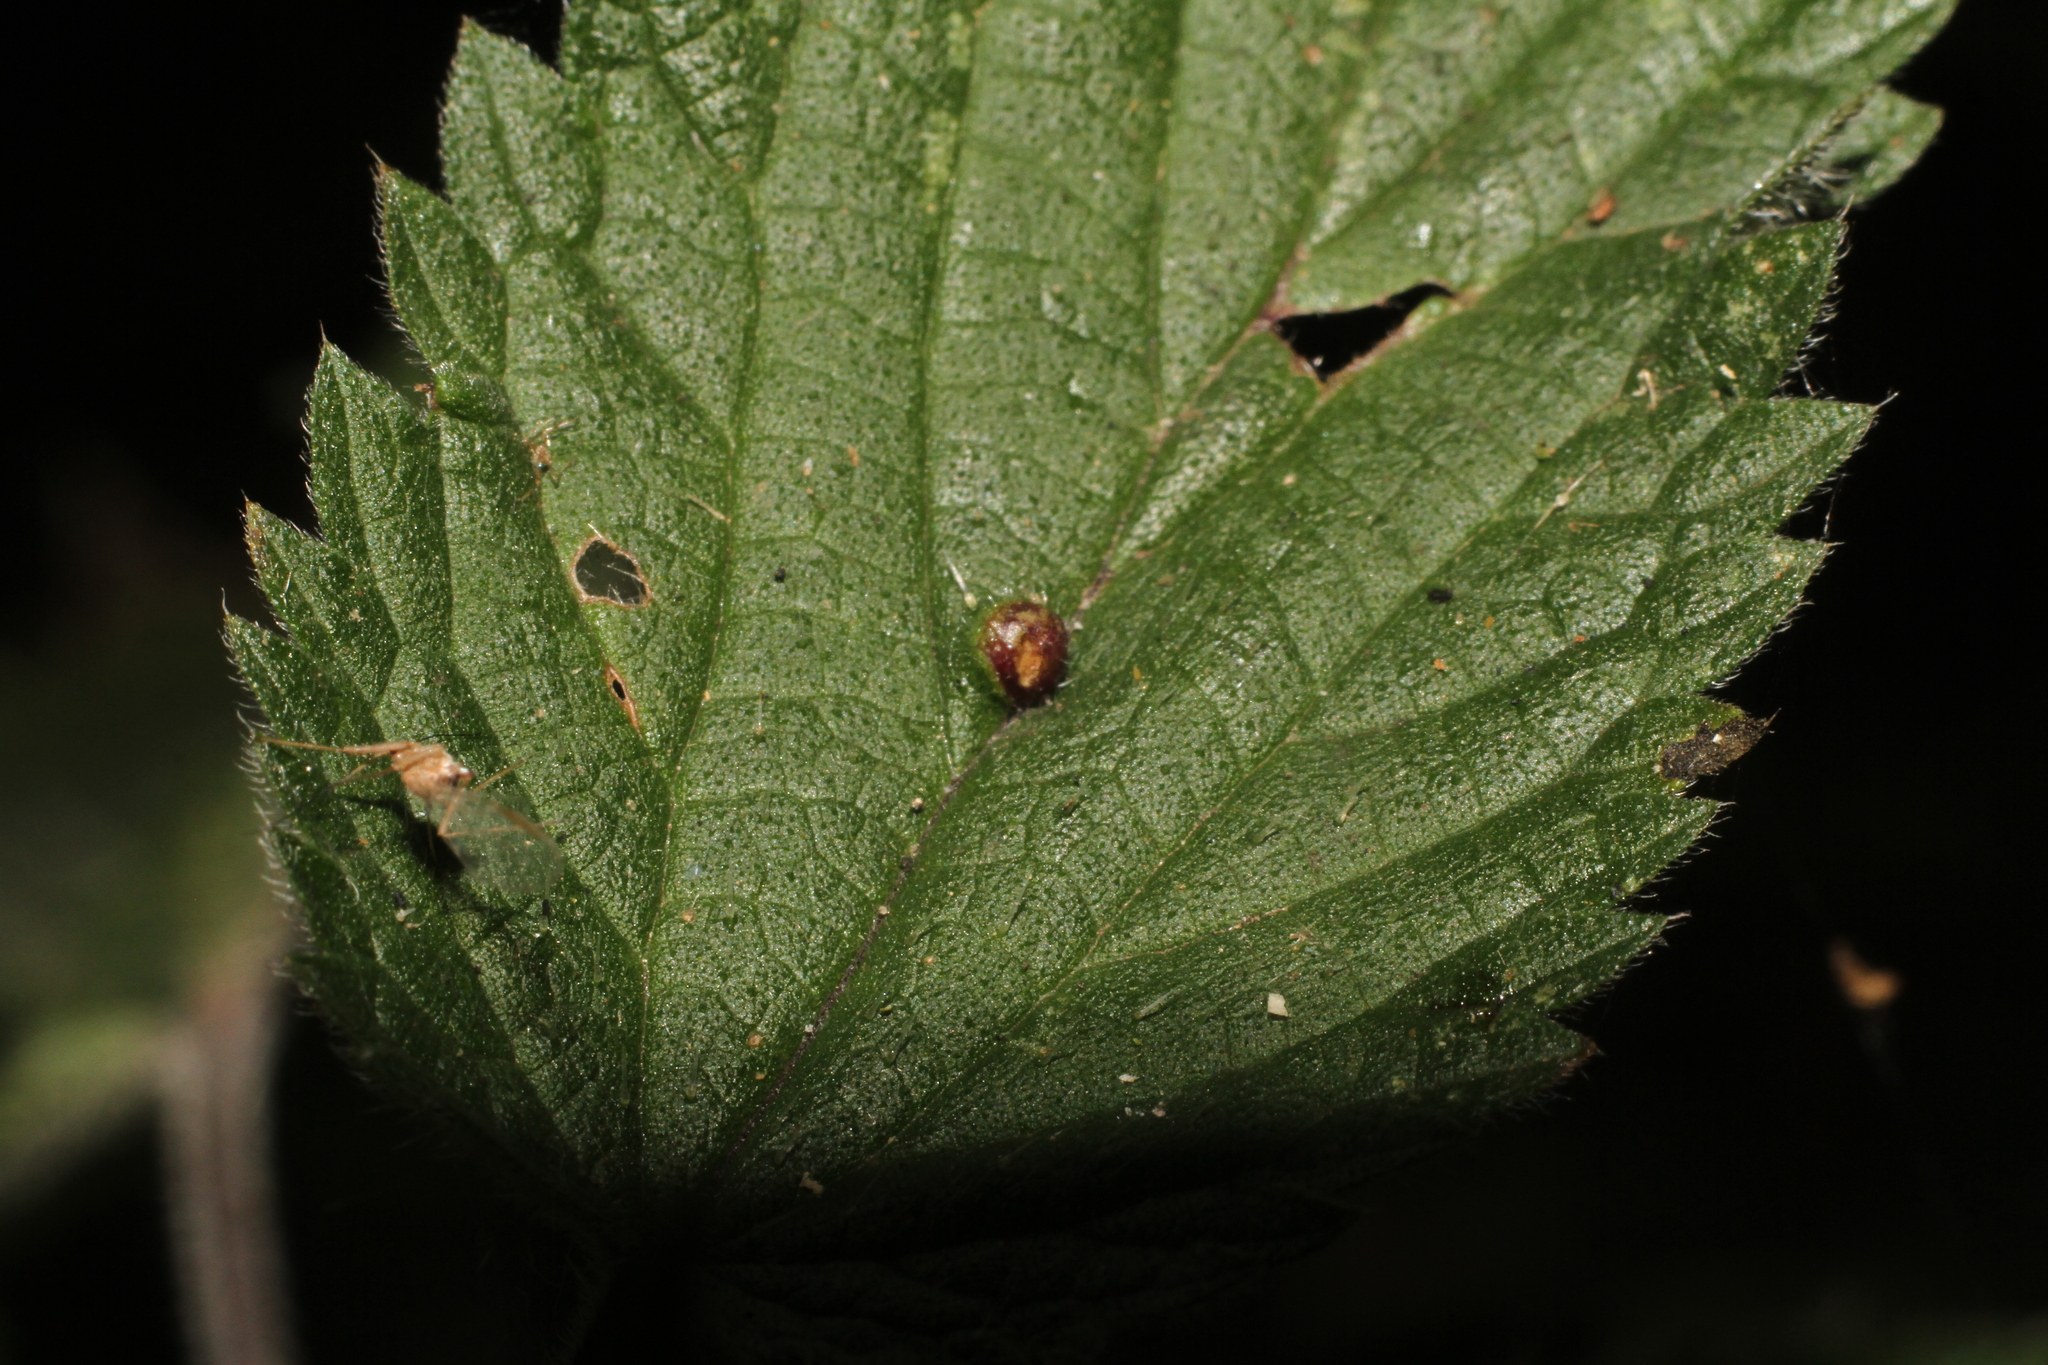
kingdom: Animalia
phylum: Arthropoda
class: Insecta
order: Diptera
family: Cecidomyiidae
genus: Dasineura
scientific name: Dasineura urticae
